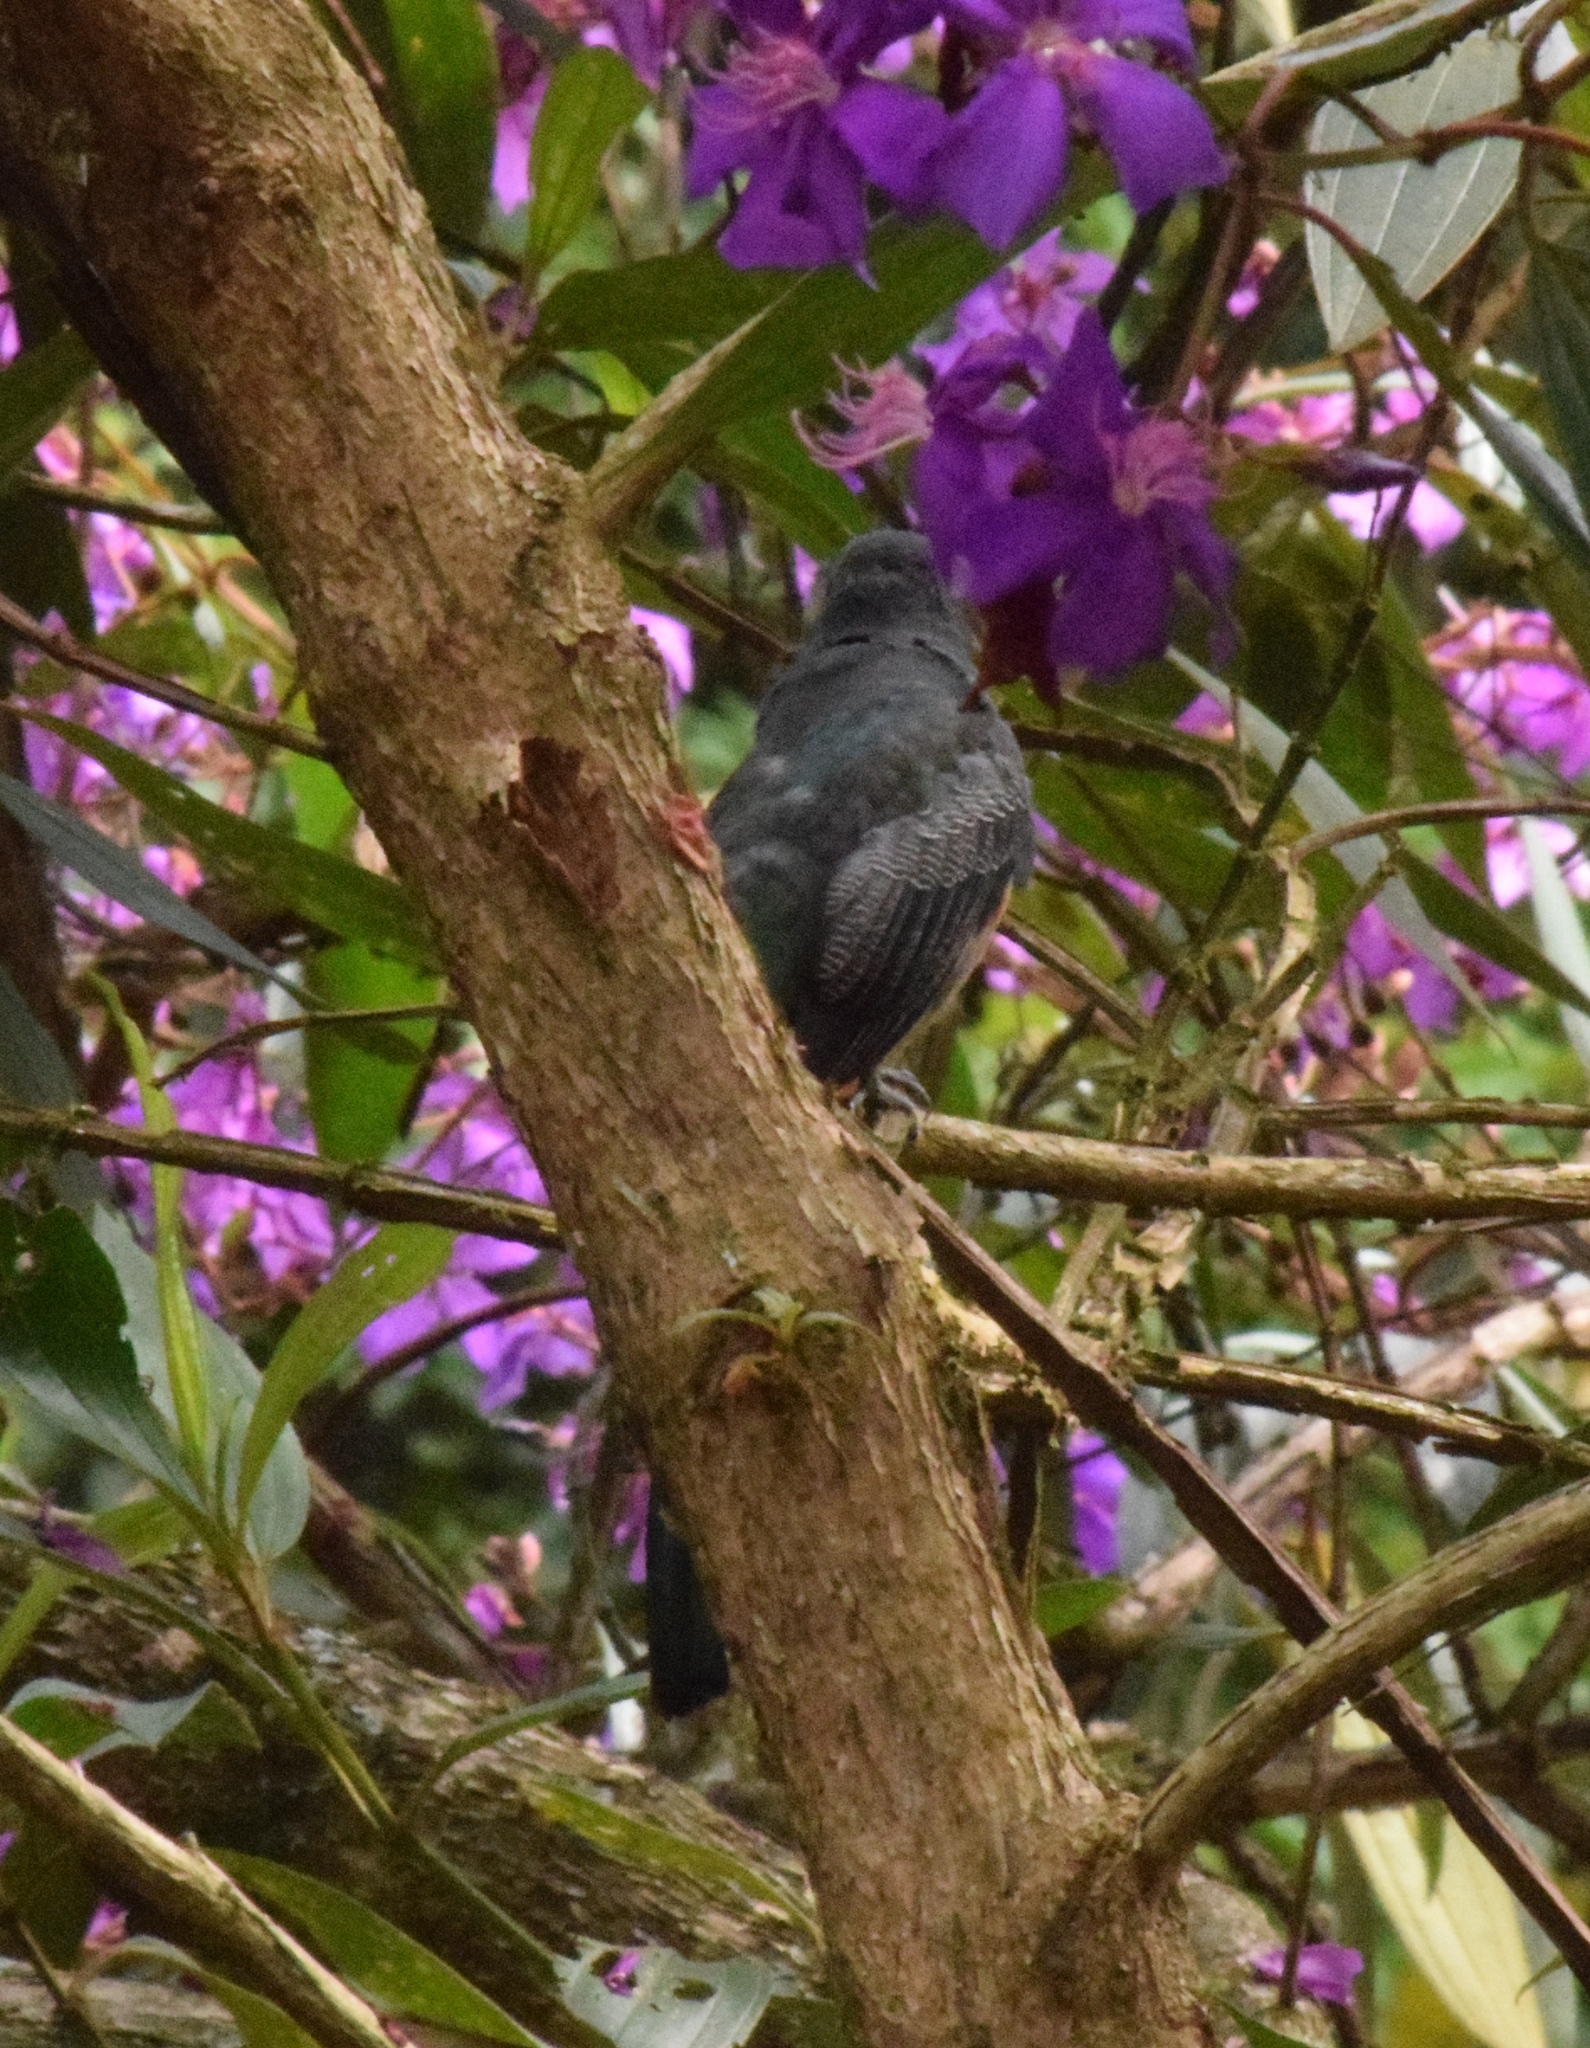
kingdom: Animalia
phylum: Chordata
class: Aves
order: Trogoniformes
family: Trogonidae
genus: Trogon
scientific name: Trogon surrucura
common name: Surucua trogon
